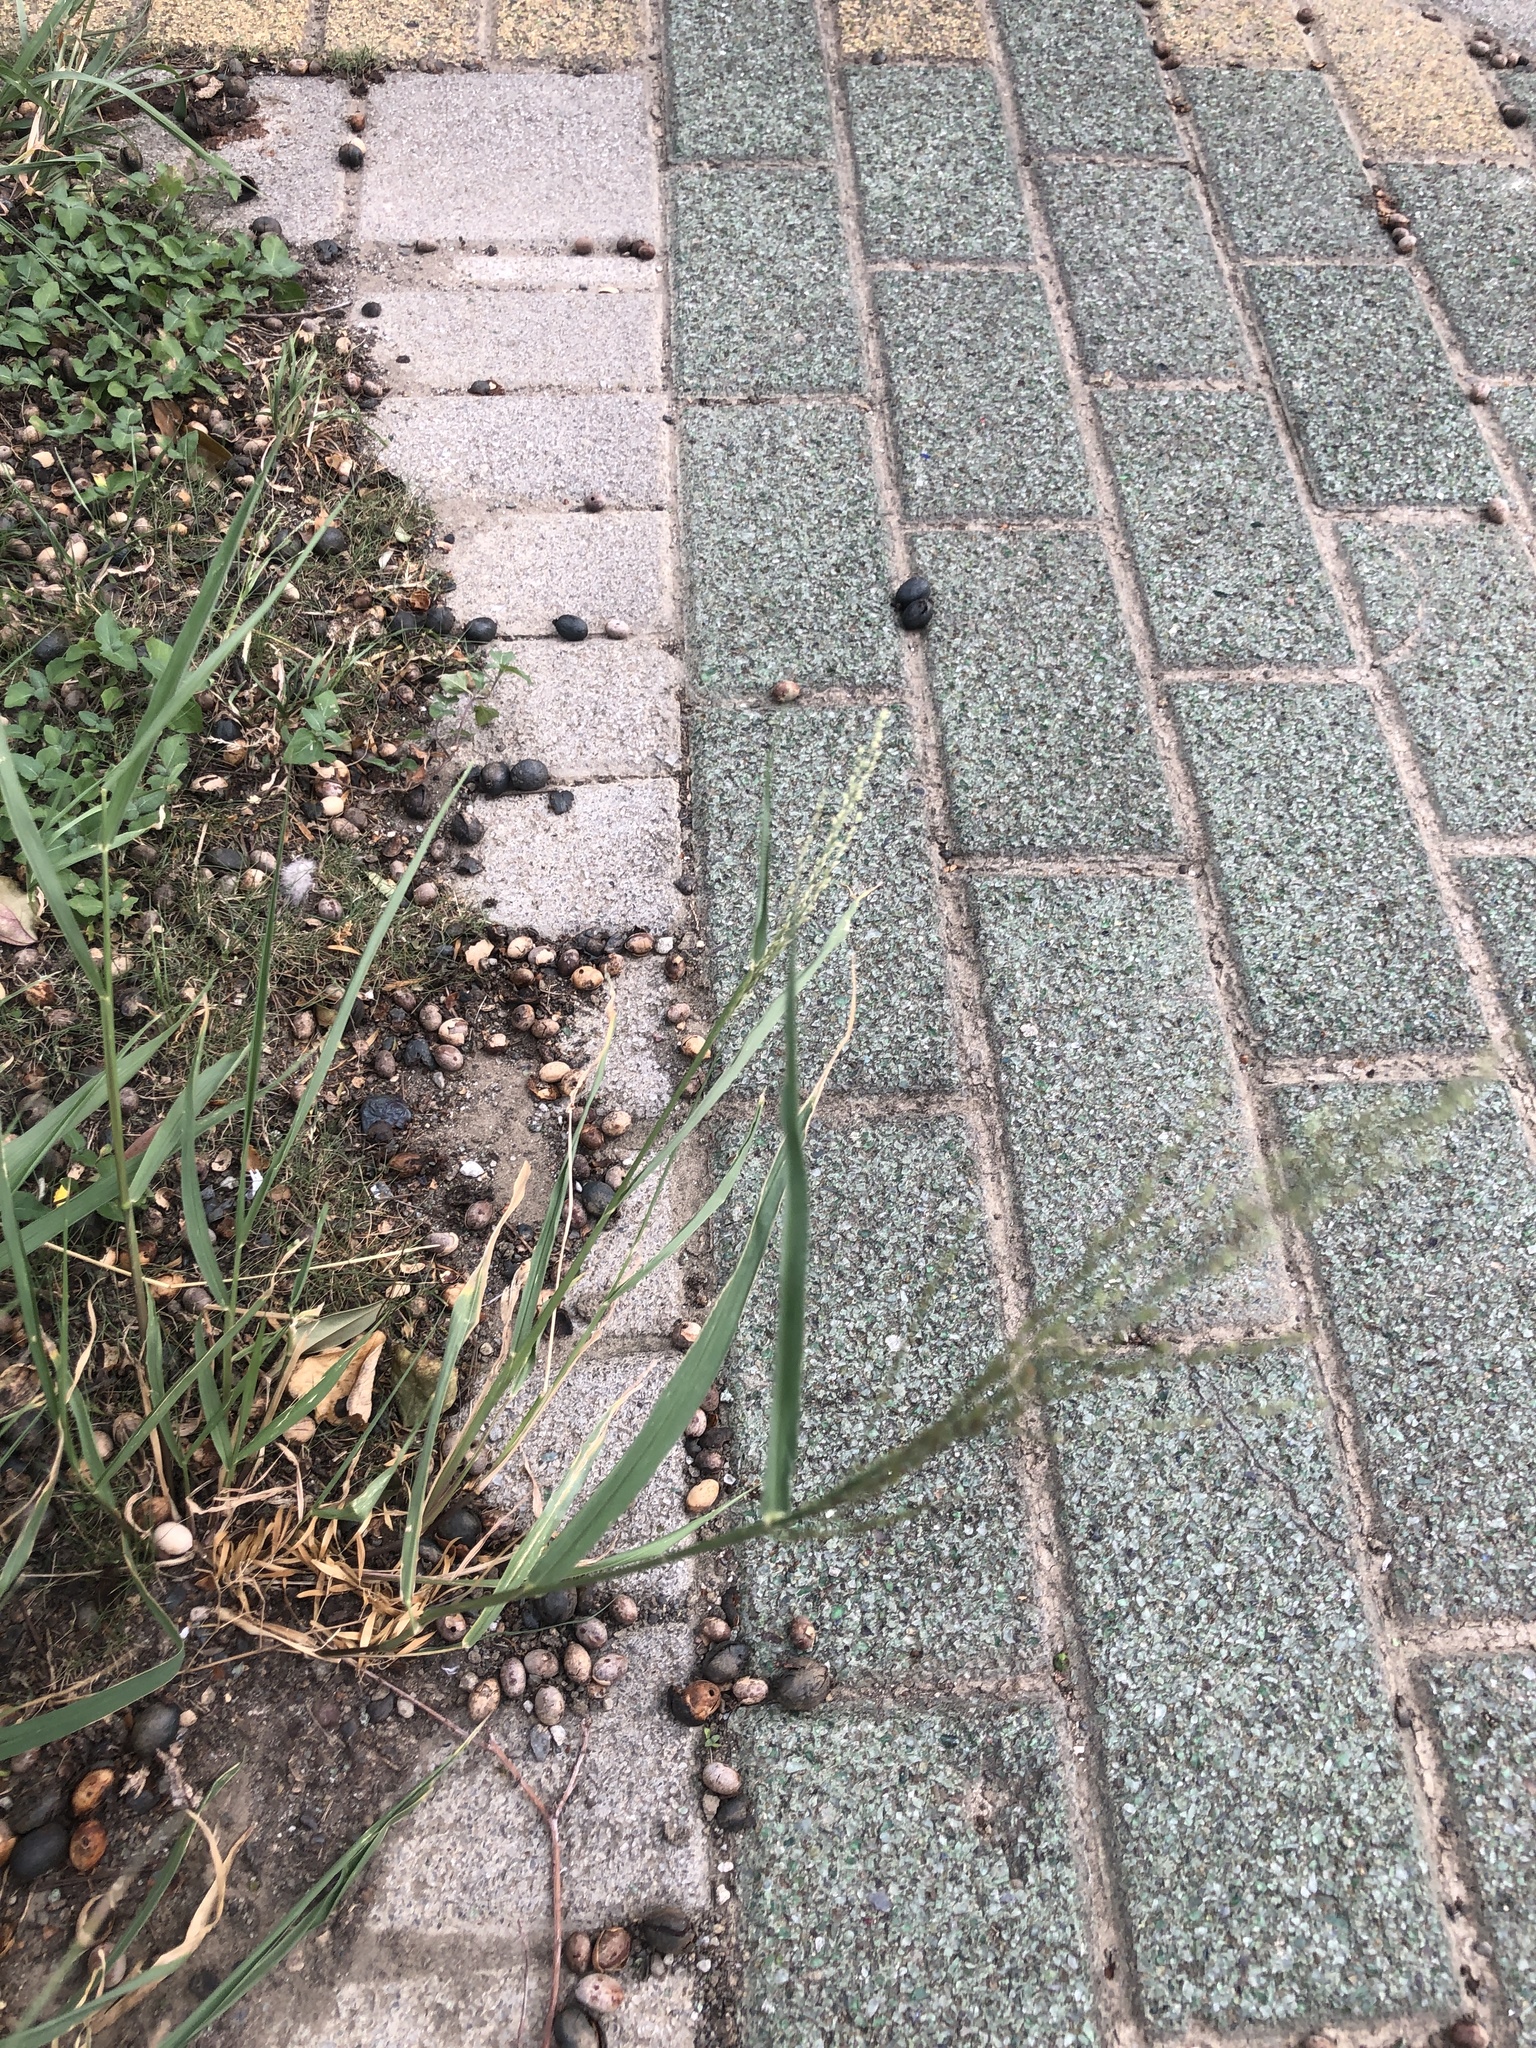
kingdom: Plantae
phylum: Tracheophyta
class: Liliopsida
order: Poales
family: Poaceae
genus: Megathyrsus
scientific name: Megathyrsus maximus
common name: Guineagrass
